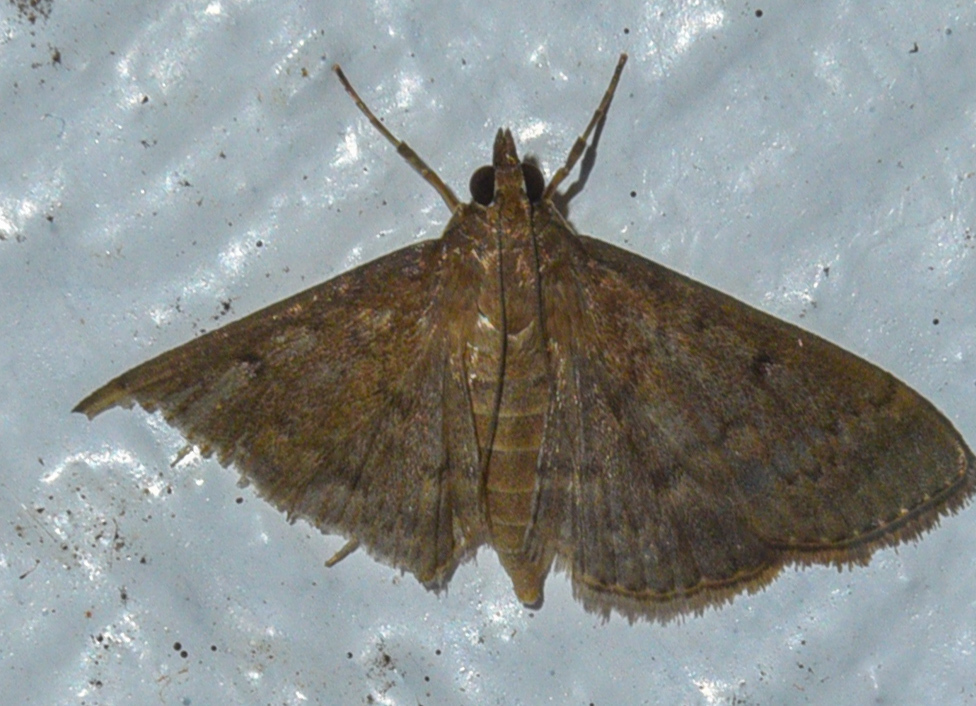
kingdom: Animalia
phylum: Arthropoda
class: Insecta
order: Lepidoptera
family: Crambidae
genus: Herpetogramma
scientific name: Herpetogramma licarsisalis
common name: Grass webworm
